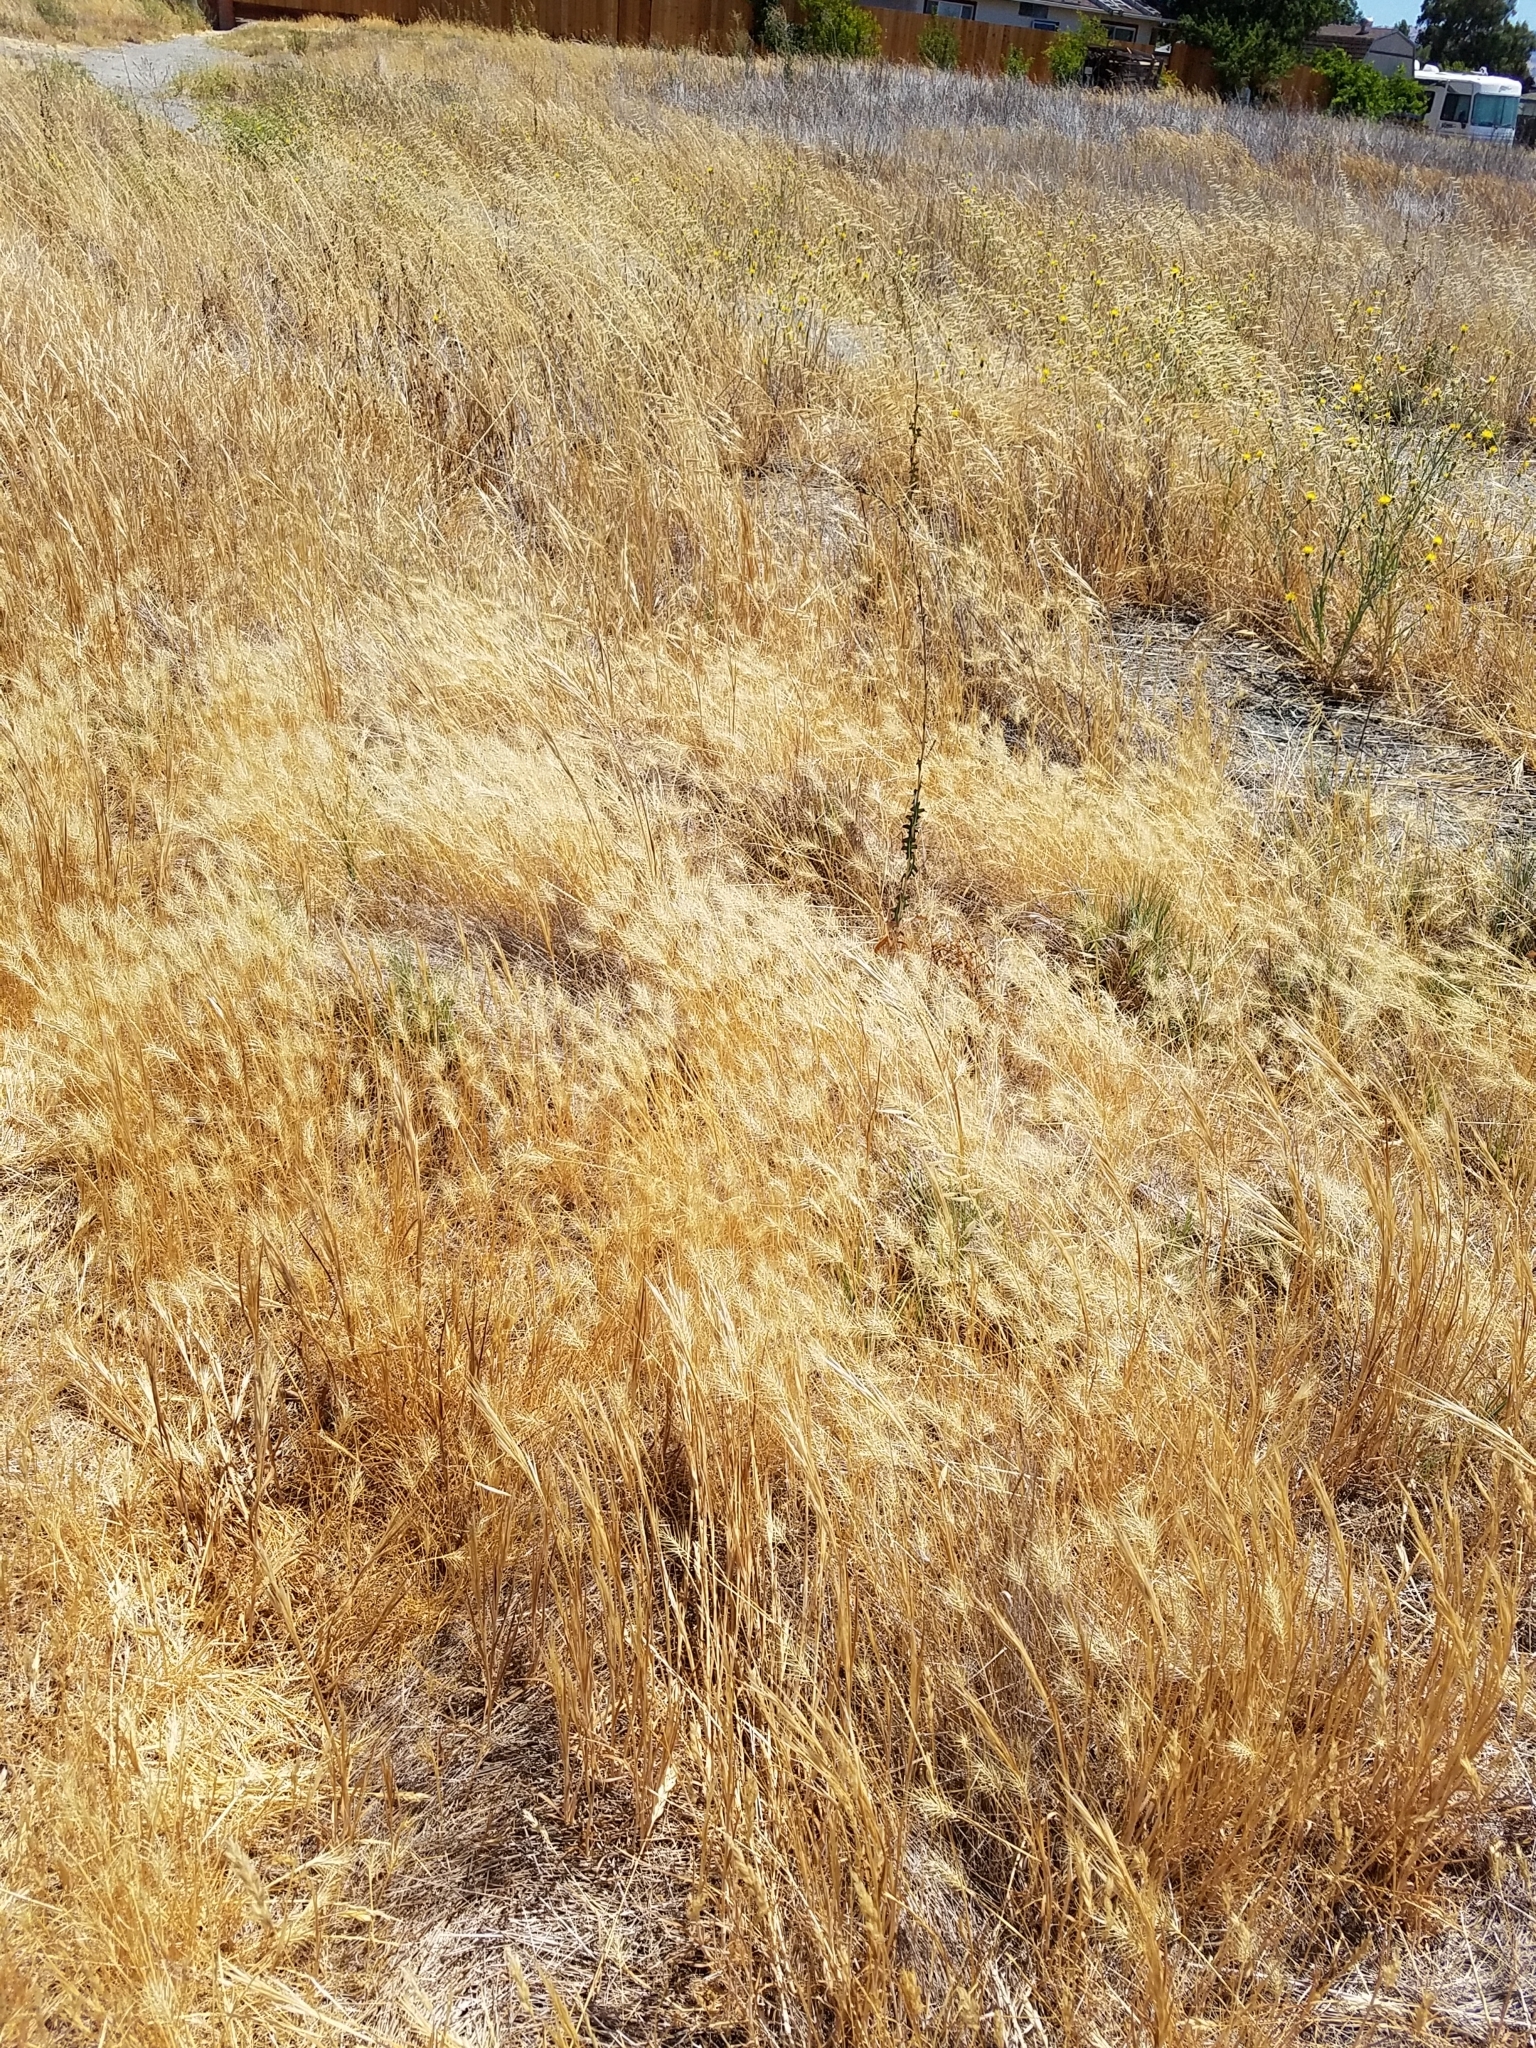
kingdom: Plantae
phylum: Tracheophyta
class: Liliopsida
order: Poales
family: Poaceae
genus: Taeniatherum
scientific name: Taeniatherum caput-medusae
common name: Medusahead
